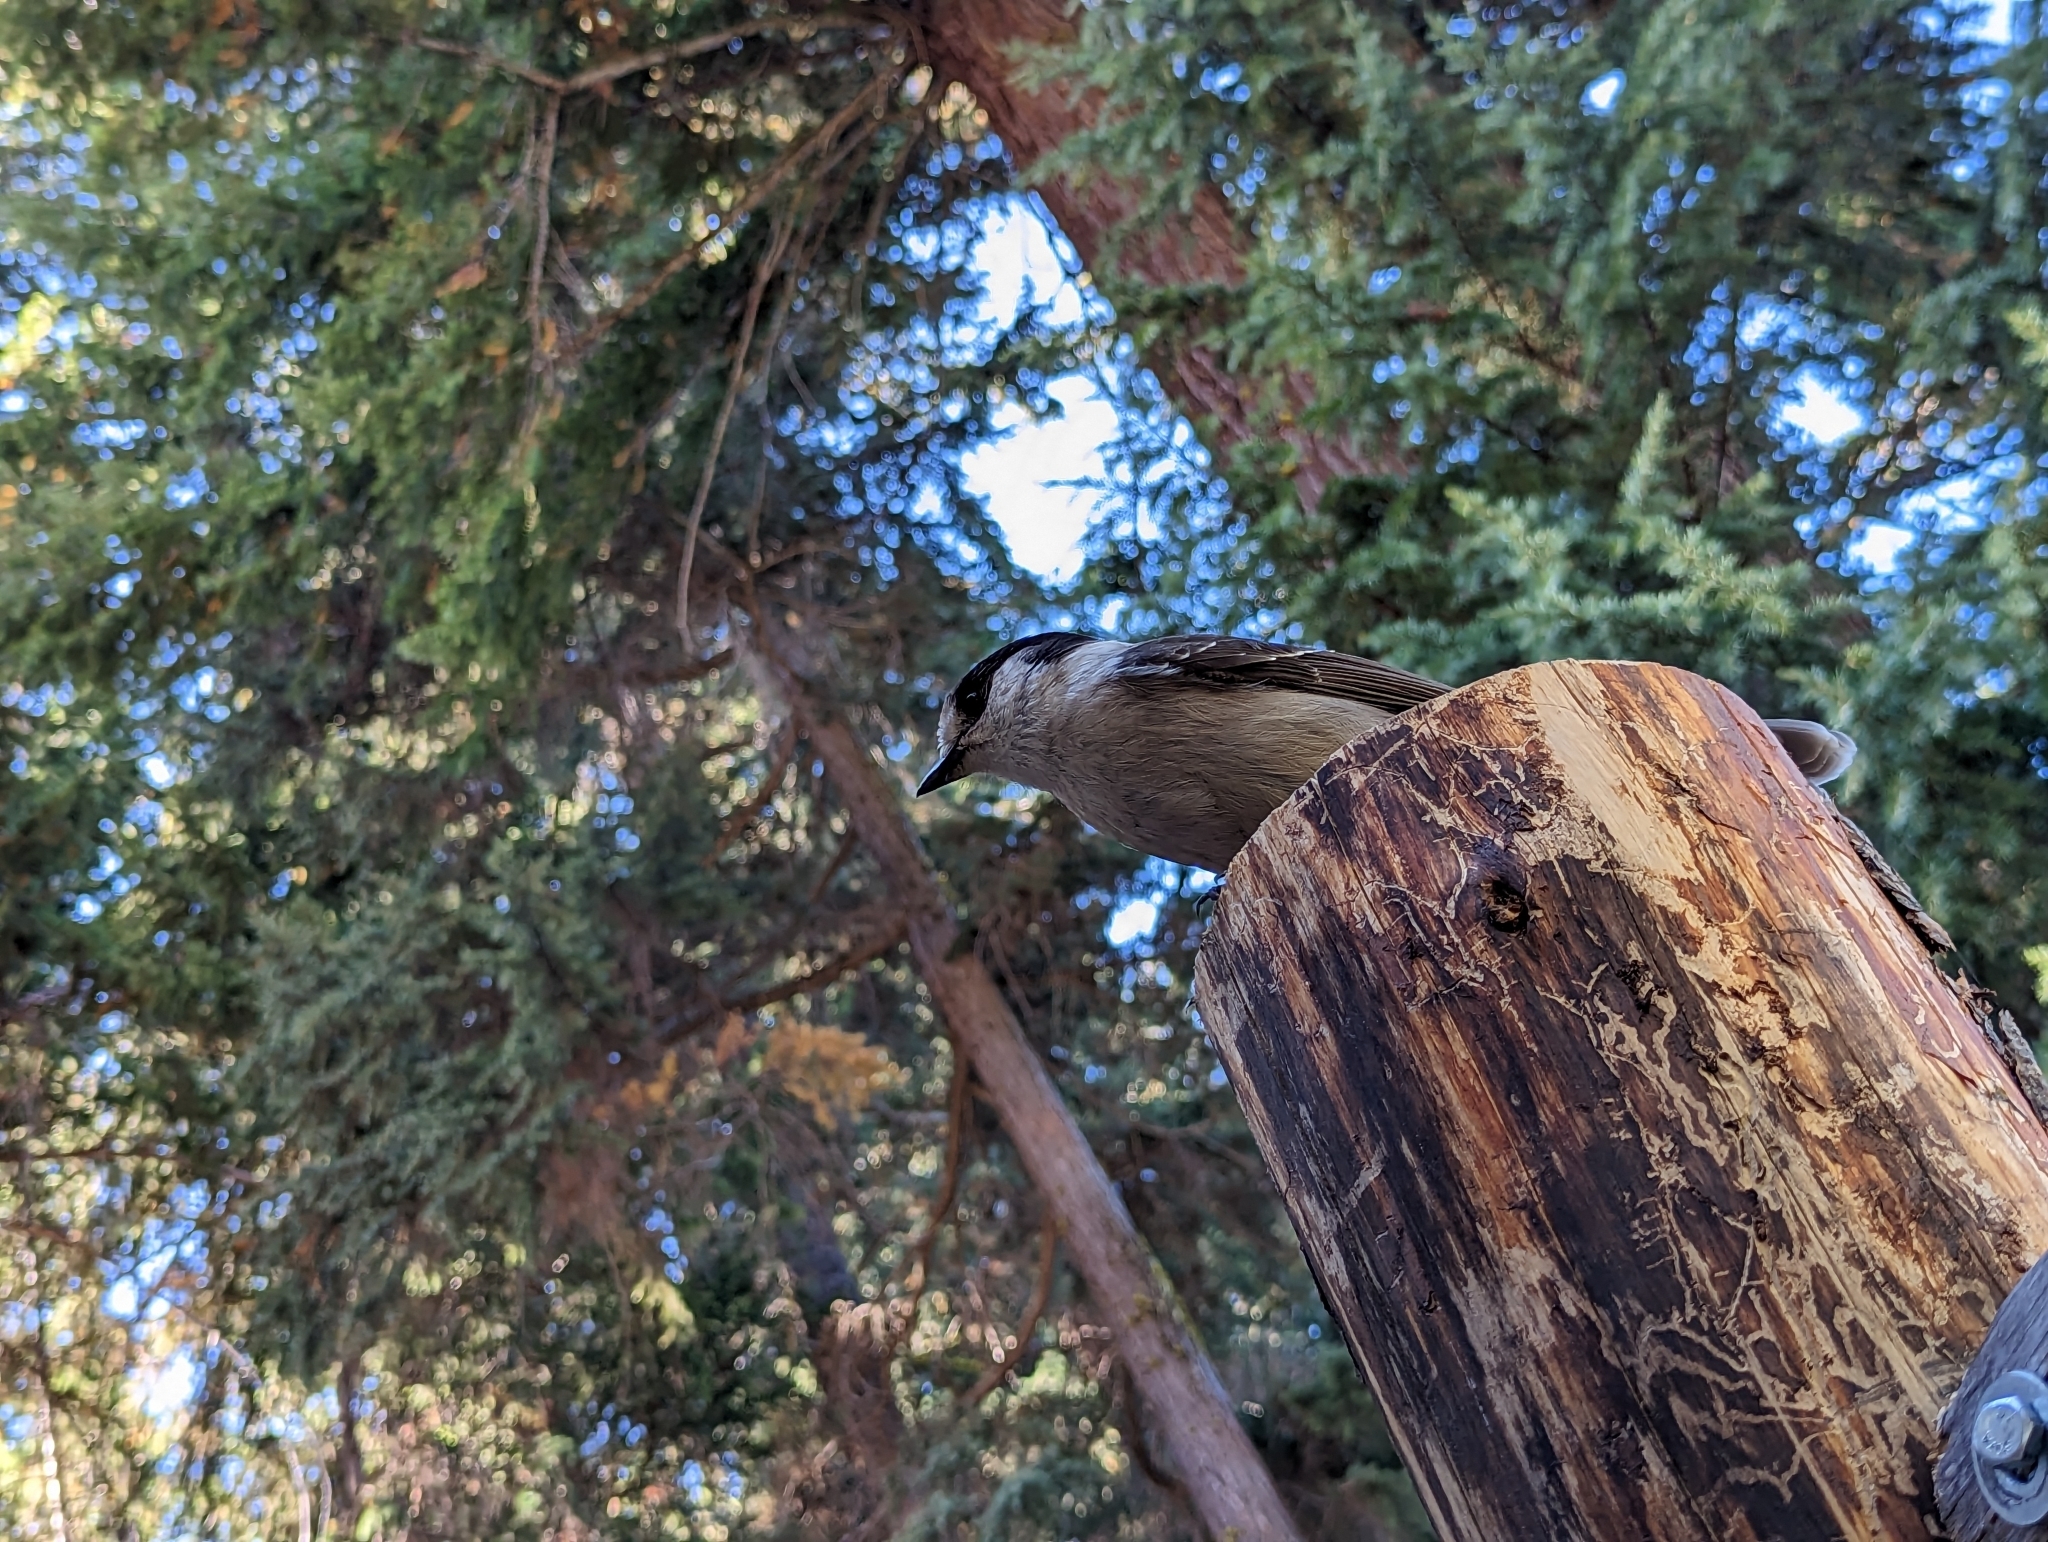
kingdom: Animalia
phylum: Chordata
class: Aves
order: Passeriformes
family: Corvidae
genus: Perisoreus
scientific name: Perisoreus canadensis
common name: Gray jay
